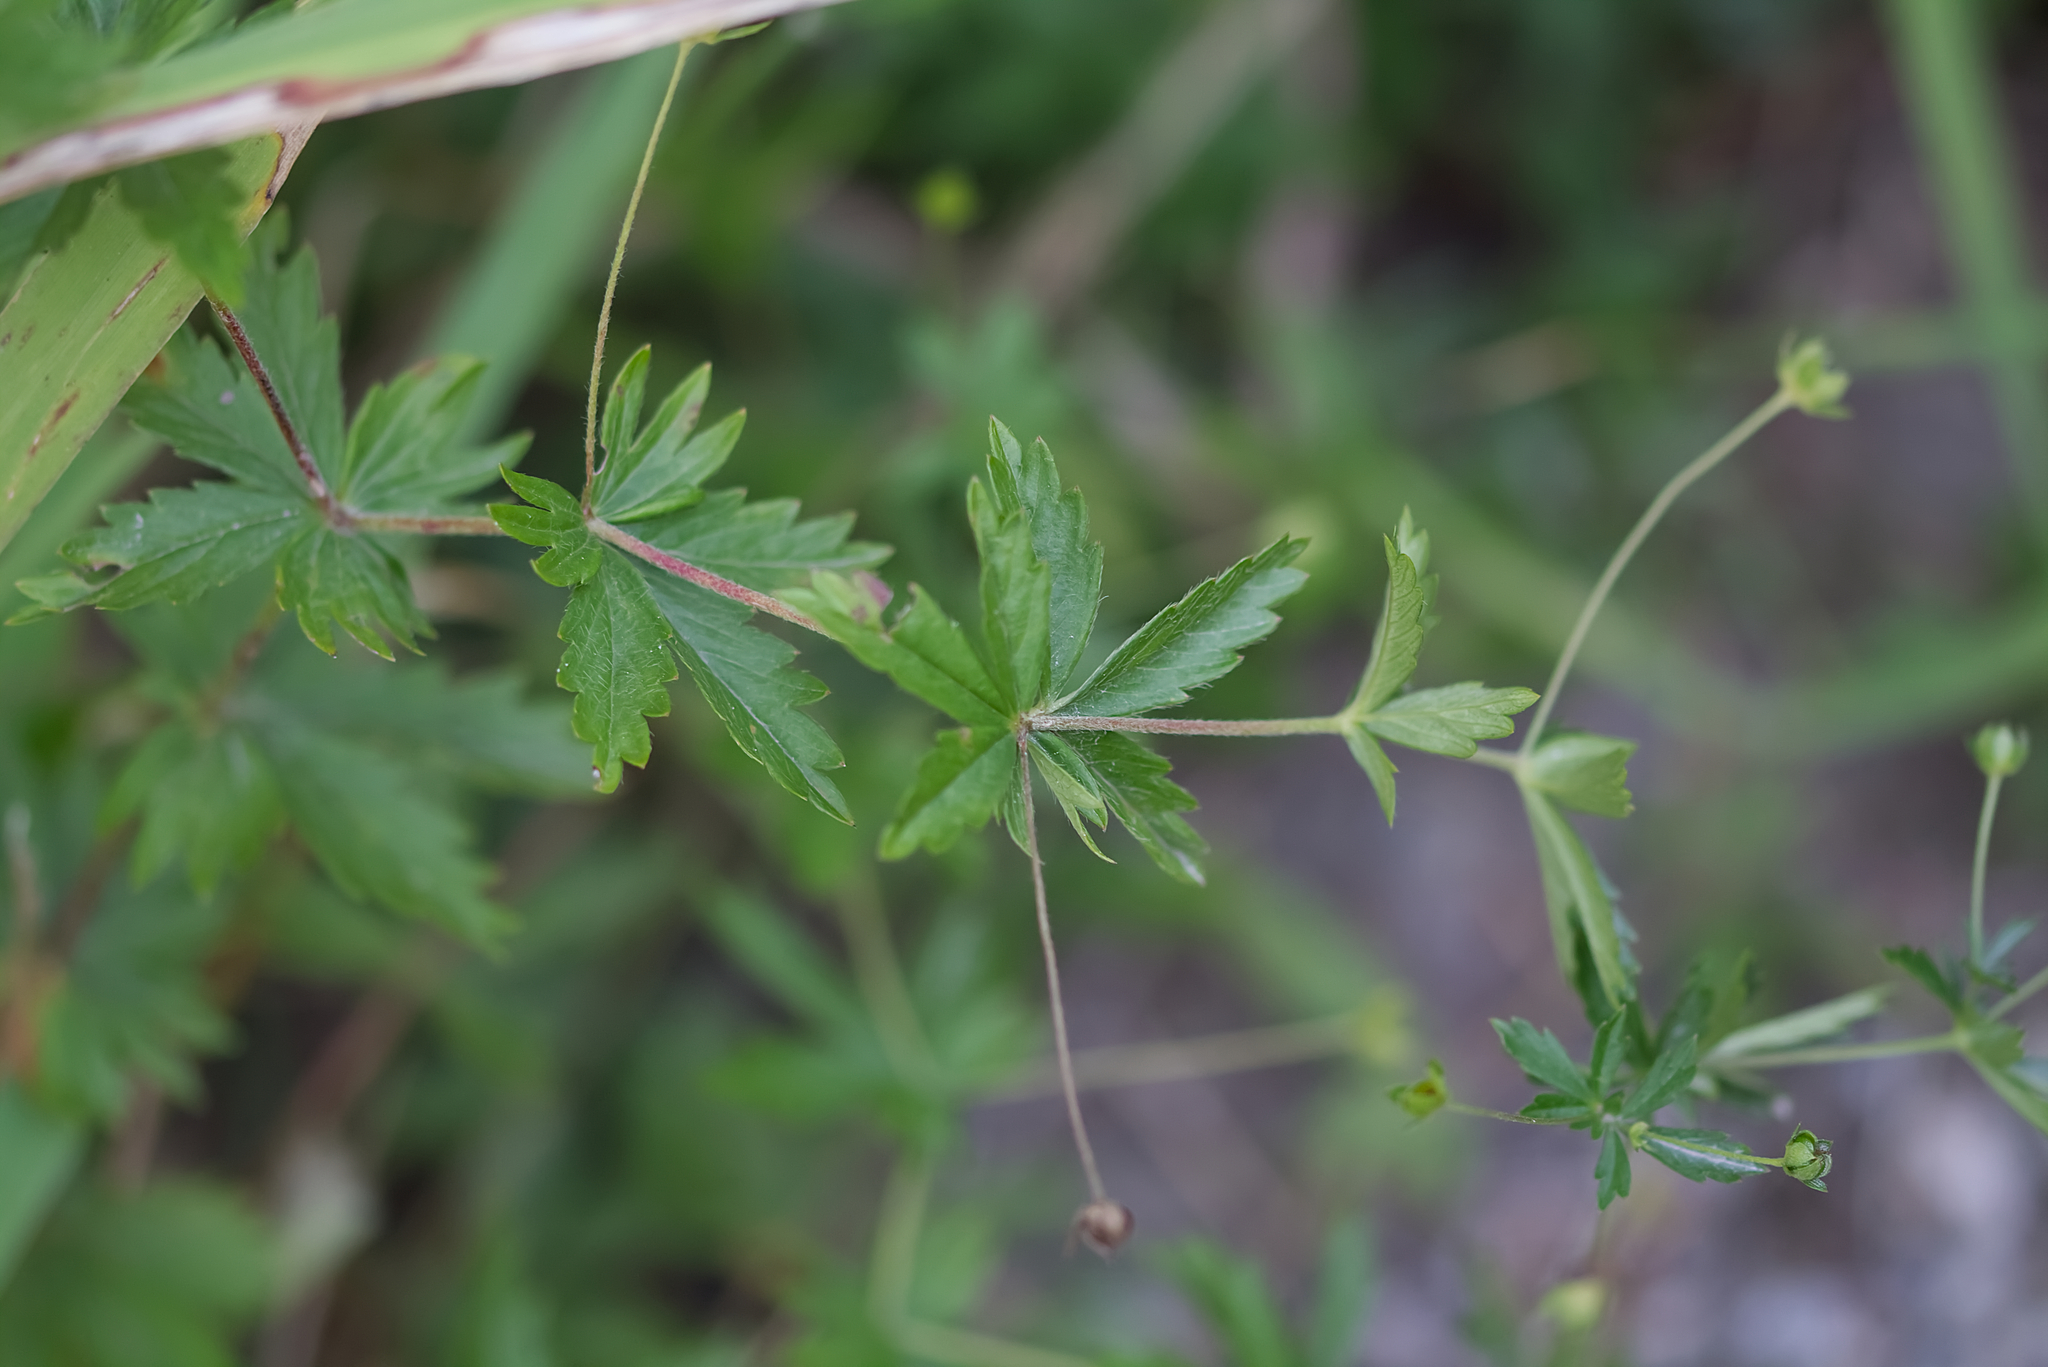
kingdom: Plantae
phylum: Tracheophyta
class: Magnoliopsida
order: Rosales
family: Rosaceae
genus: Potentilla
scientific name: Potentilla erecta
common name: Tormentil
